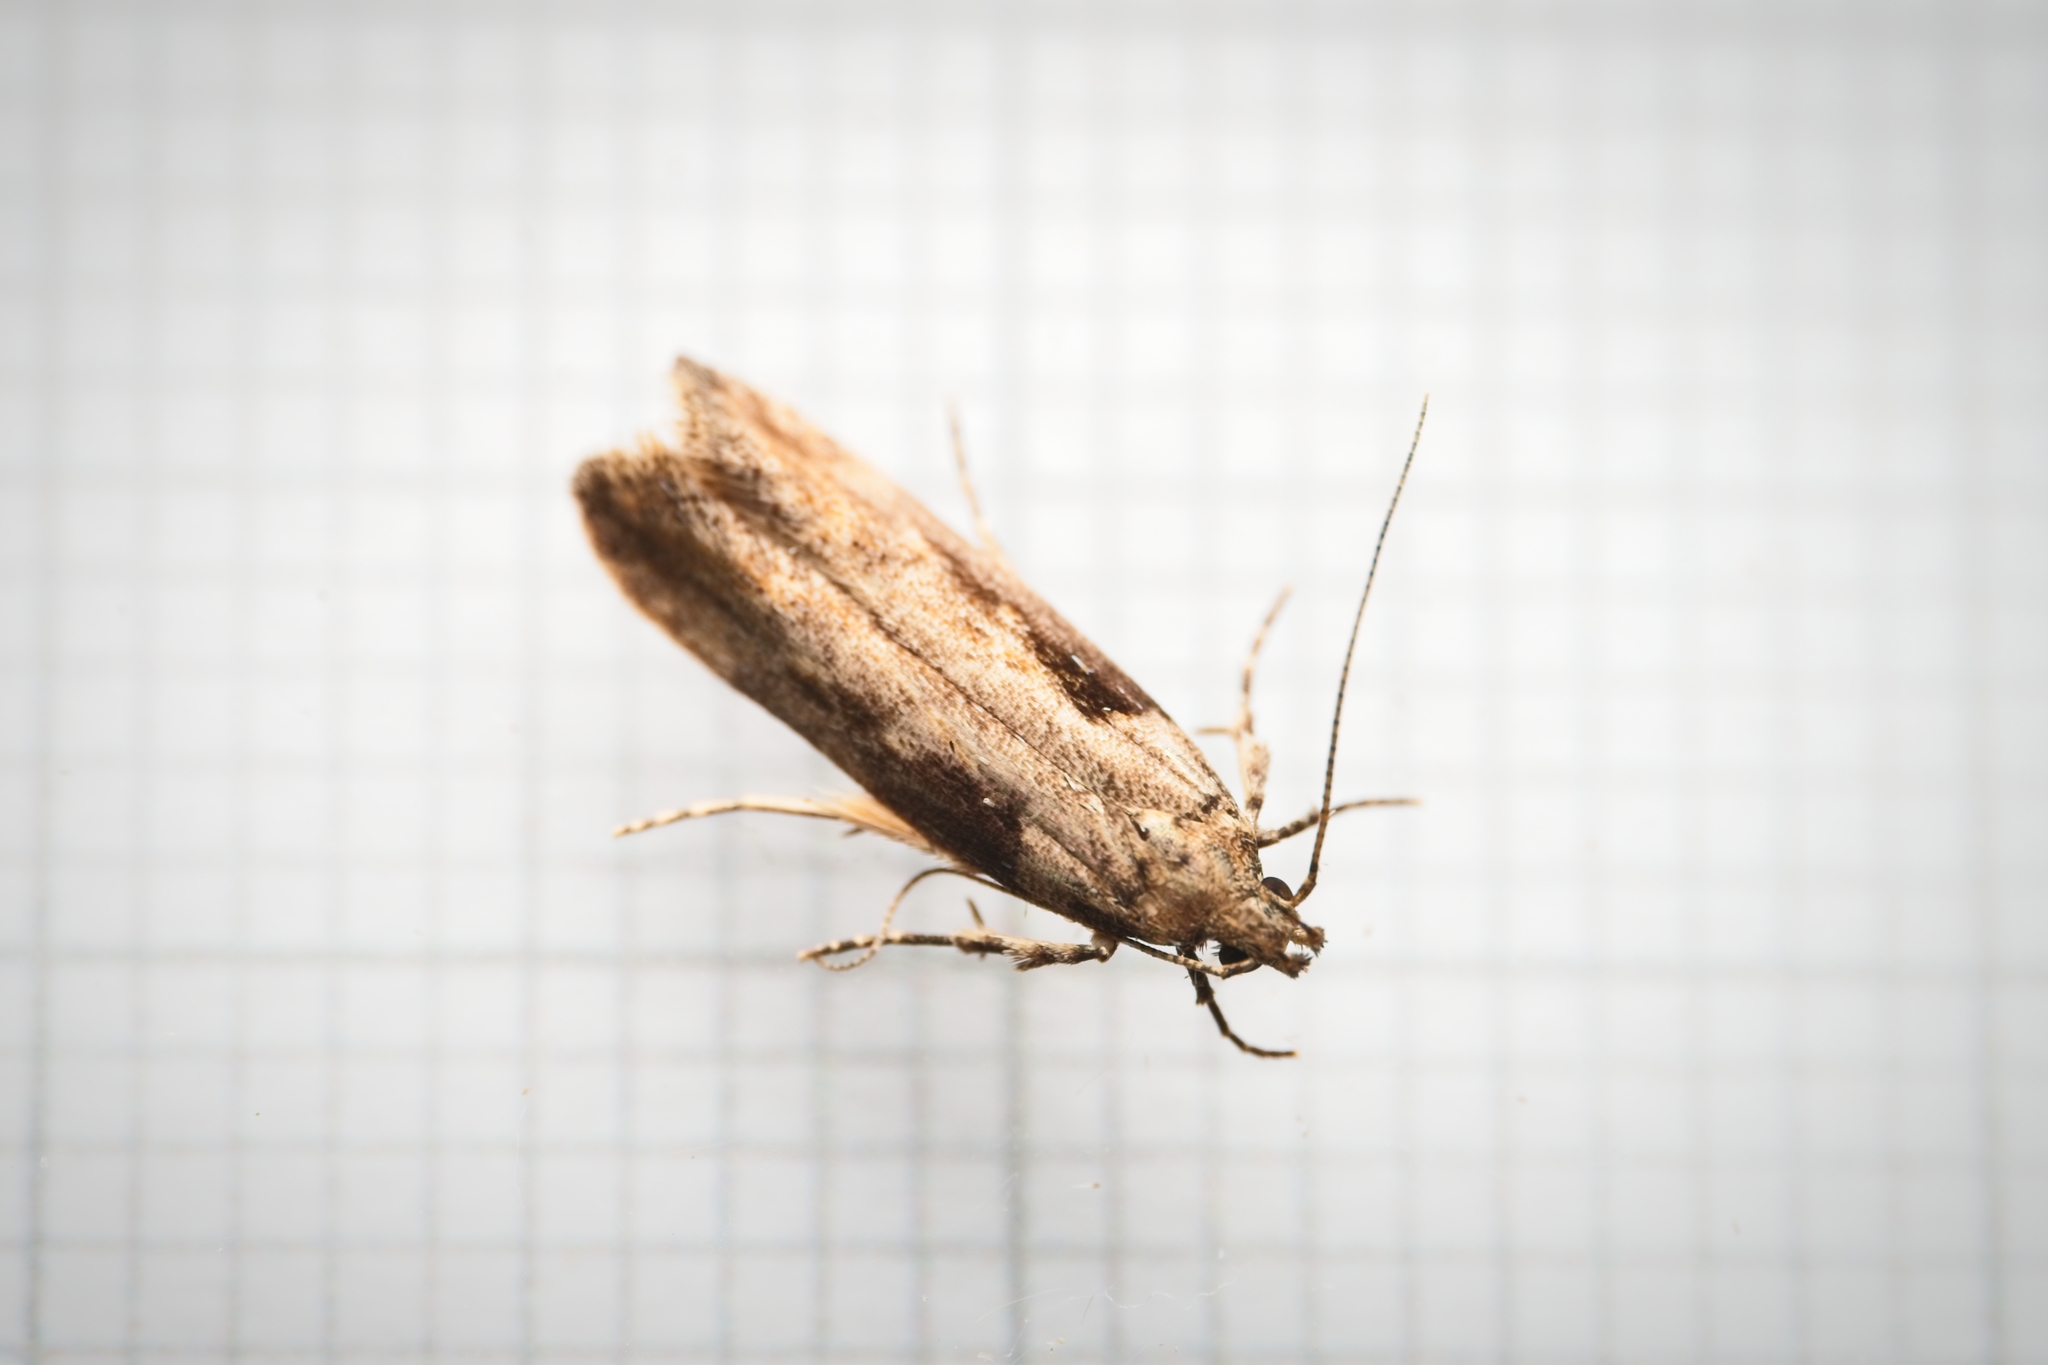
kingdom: Animalia
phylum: Arthropoda
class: Insecta
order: Lepidoptera
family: Gelechiidae
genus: Symmetrischema
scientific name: Symmetrischema tangolias
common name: Moth
